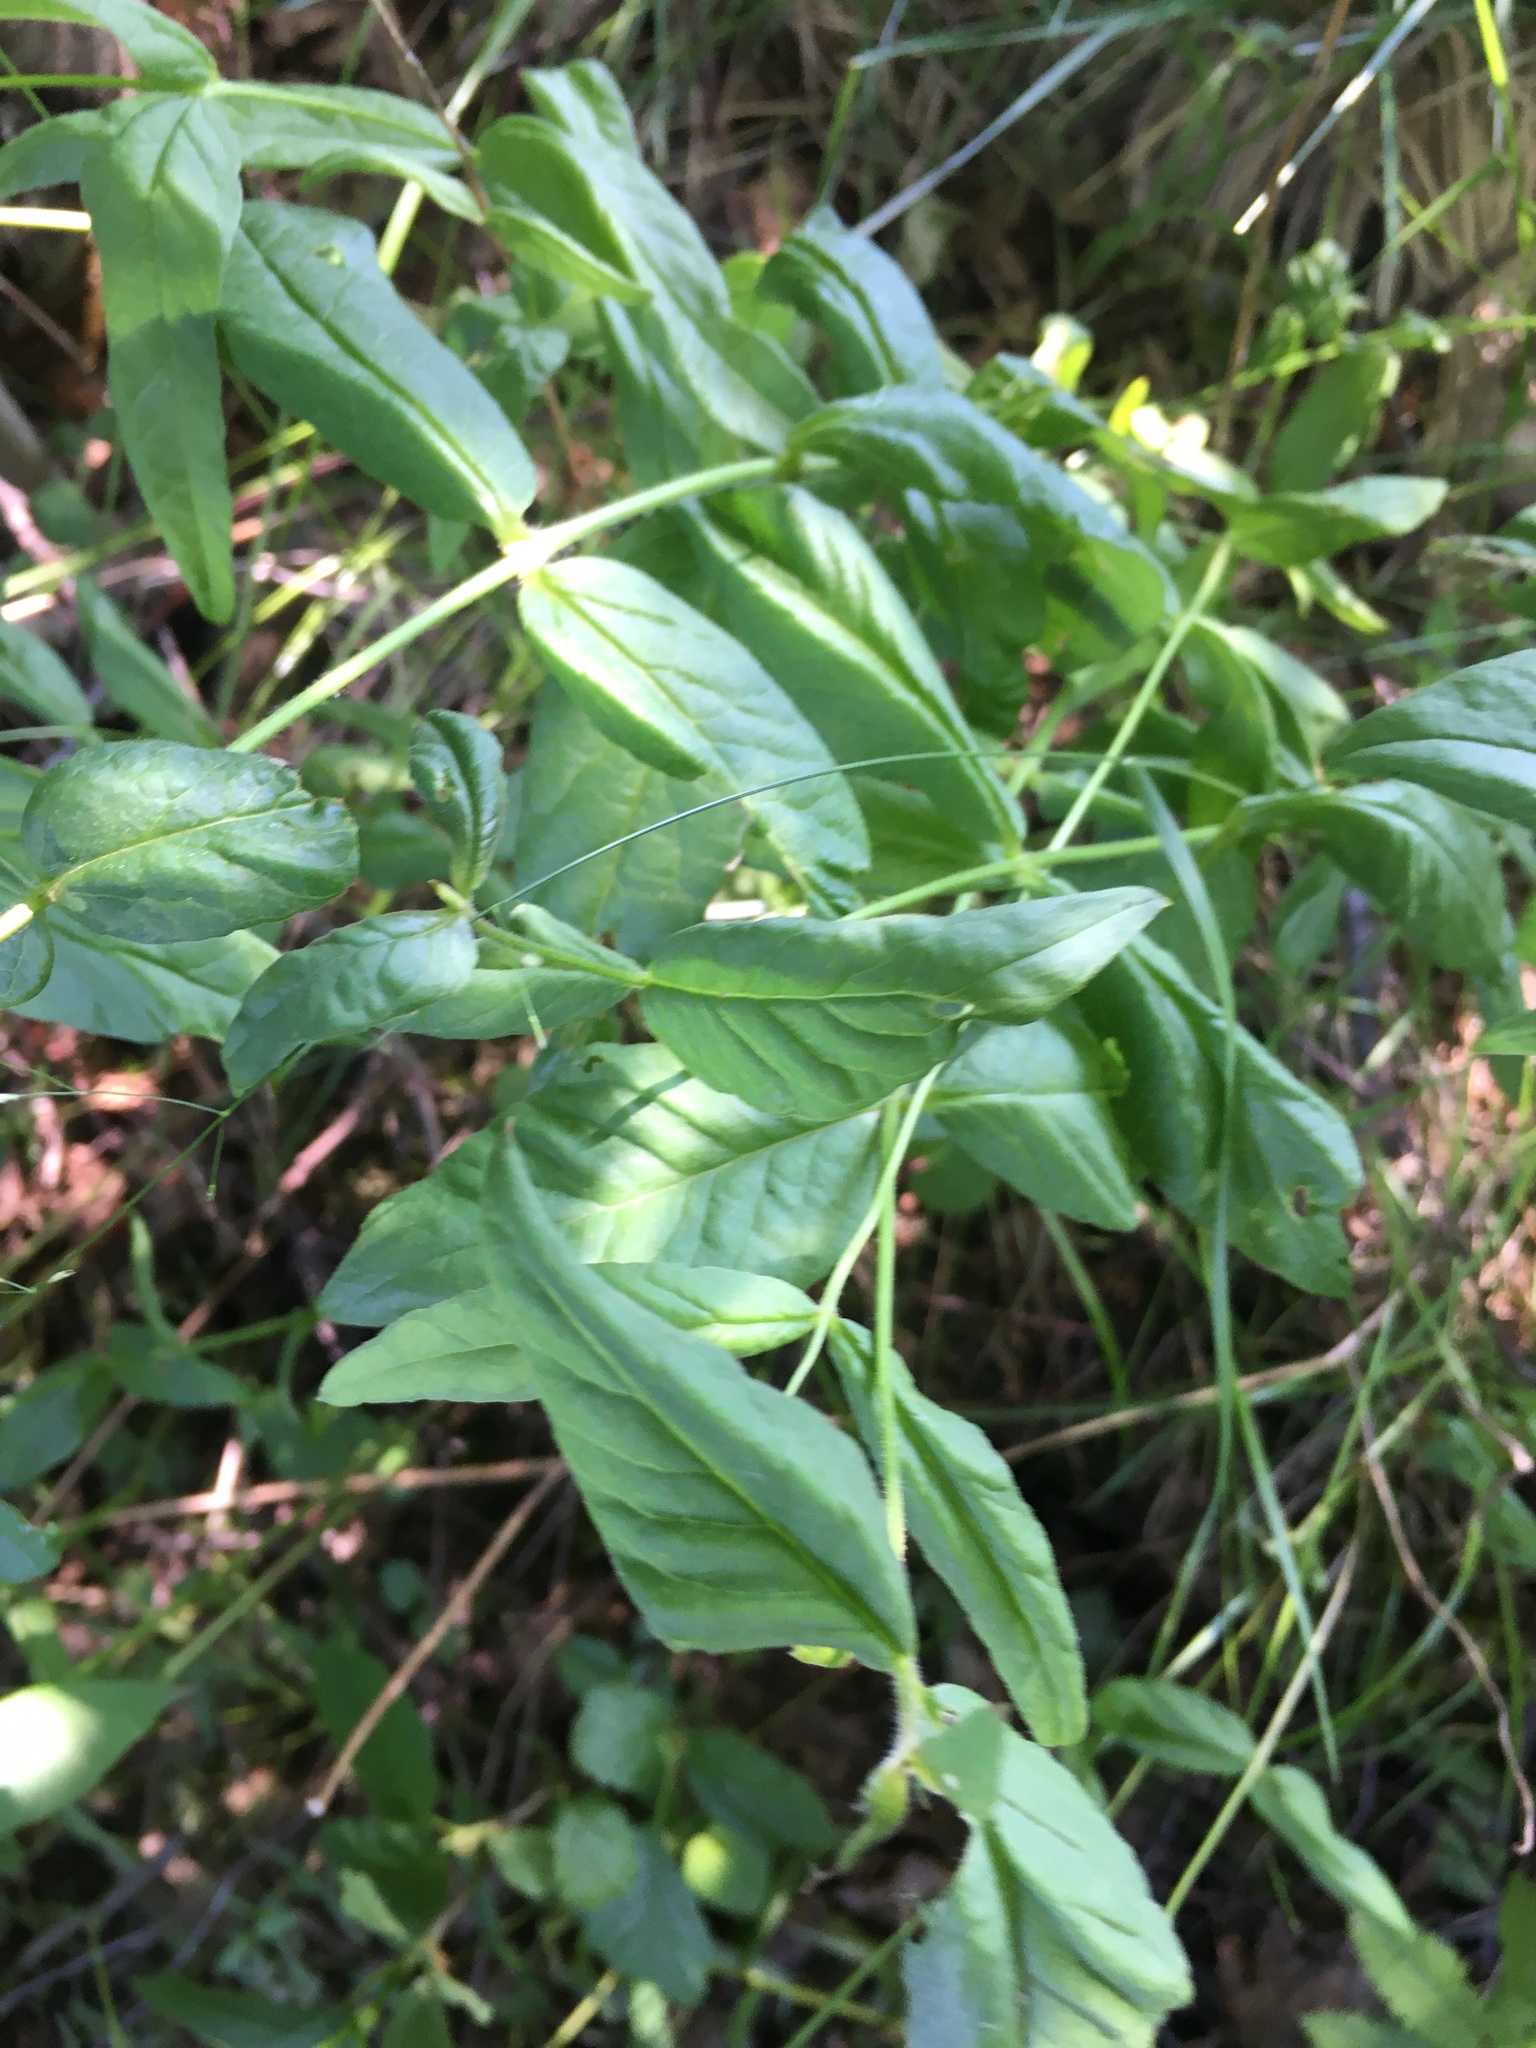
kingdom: Plantae
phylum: Tracheophyta
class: Magnoliopsida
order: Ericales
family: Primulaceae
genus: Lysimachia
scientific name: Lysimachia vulgaris
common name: Yellow loosestrife
